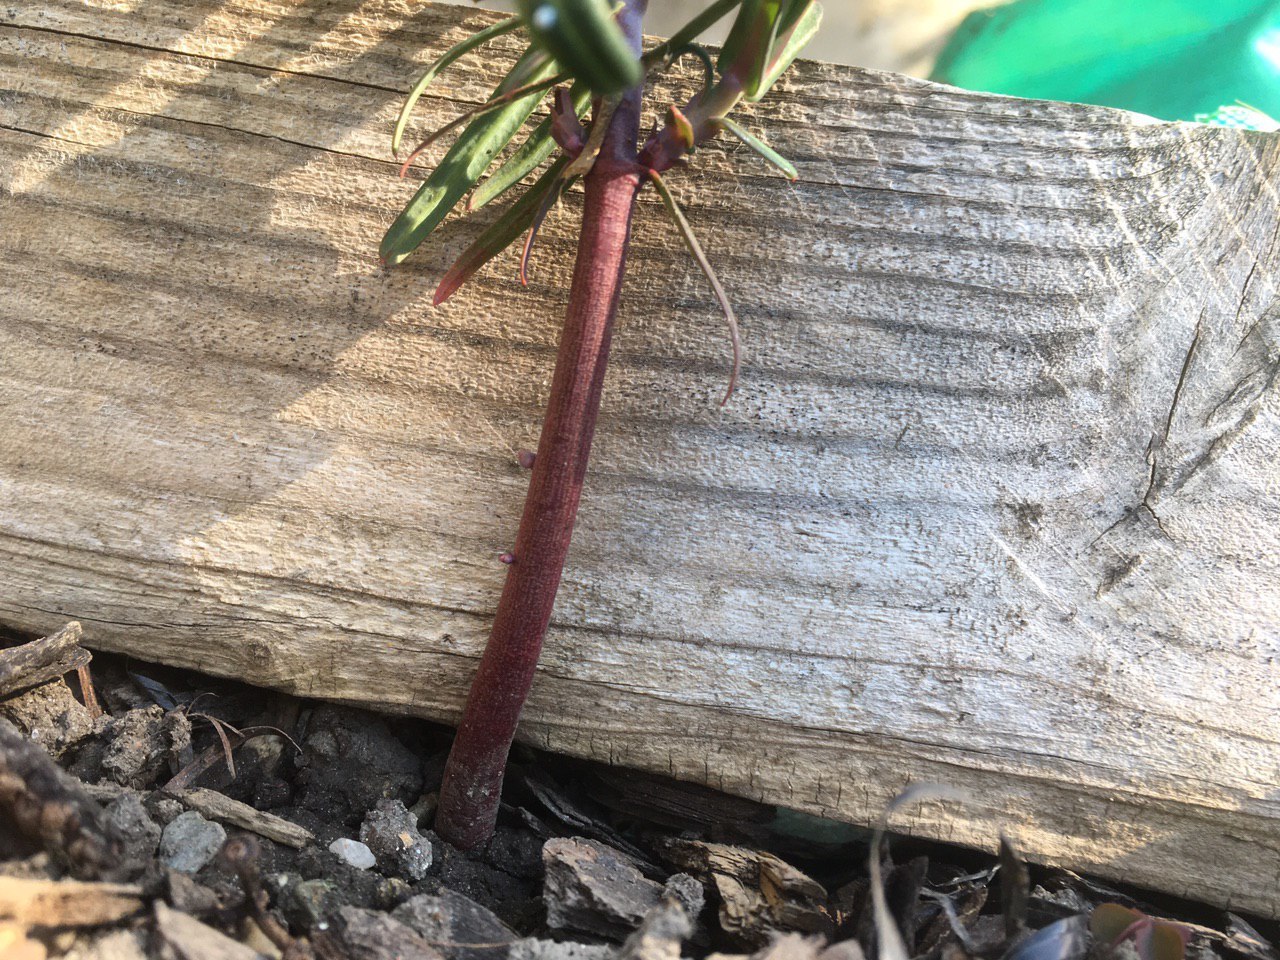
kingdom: Plantae
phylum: Tracheophyta
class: Magnoliopsida
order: Malpighiales
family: Euphorbiaceae
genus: Euphorbia
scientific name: Euphorbia lathyris
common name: Caper spurge
